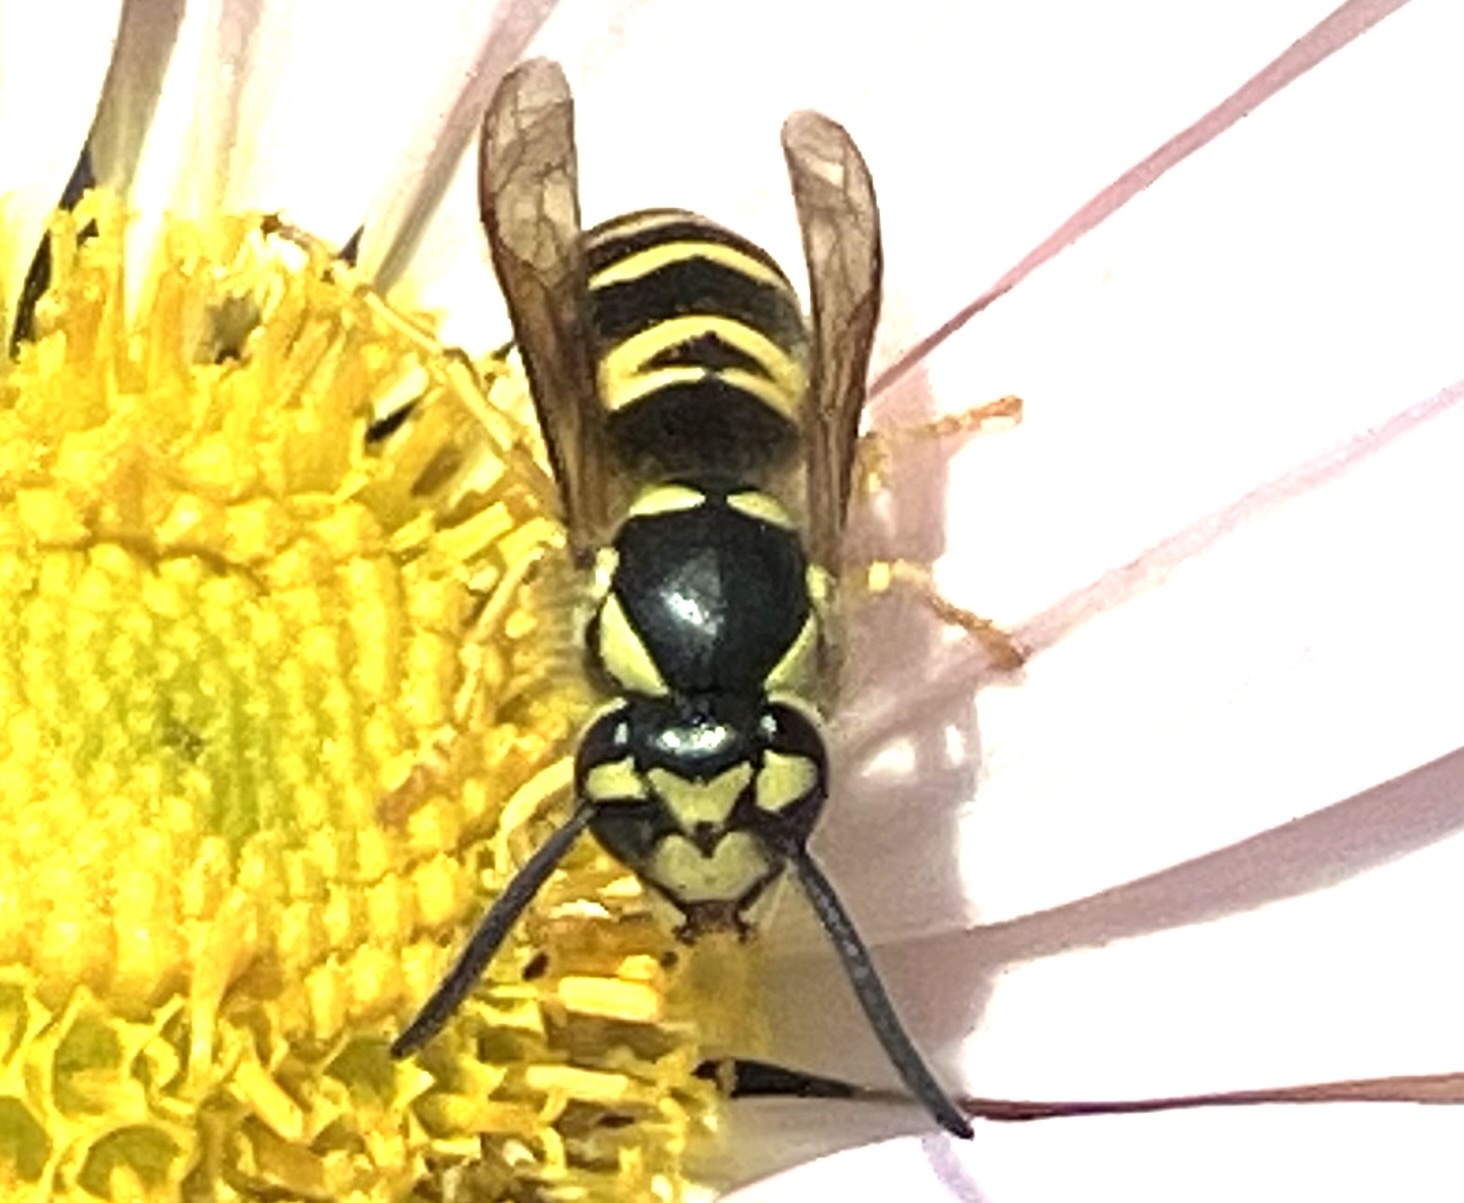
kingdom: Animalia
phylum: Arthropoda
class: Insecta
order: Hymenoptera
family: Vespidae
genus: Vespula
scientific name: Vespula maculifrons
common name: Eastern yellowjacket
